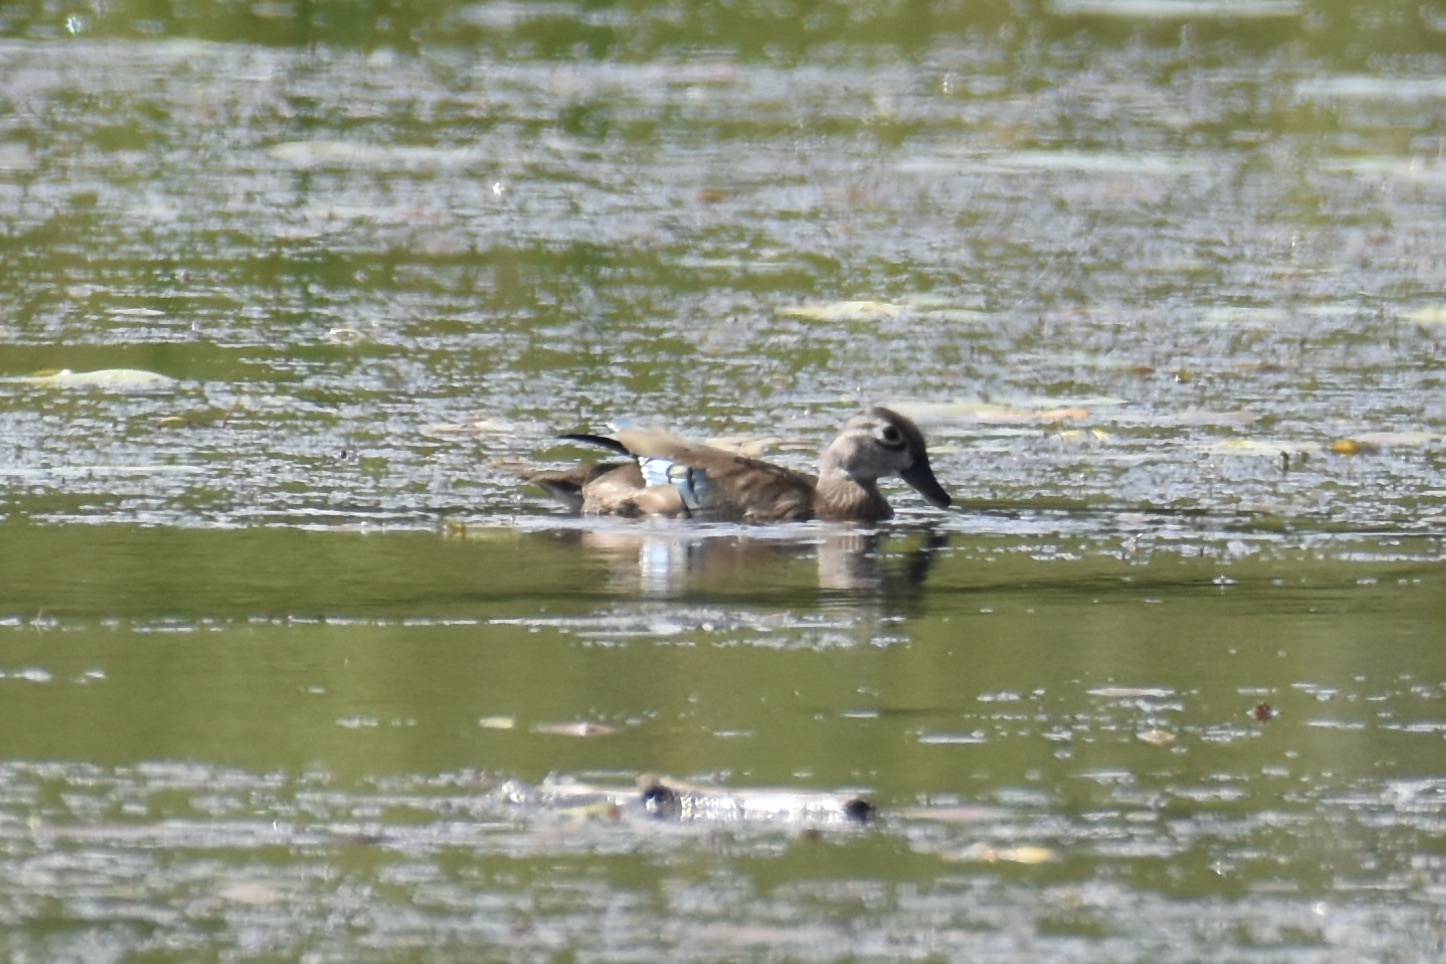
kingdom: Animalia
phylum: Chordata
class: Aves
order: Anseriformes
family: Anatidae
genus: Aix
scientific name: Aix sponsa
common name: Wood duck
